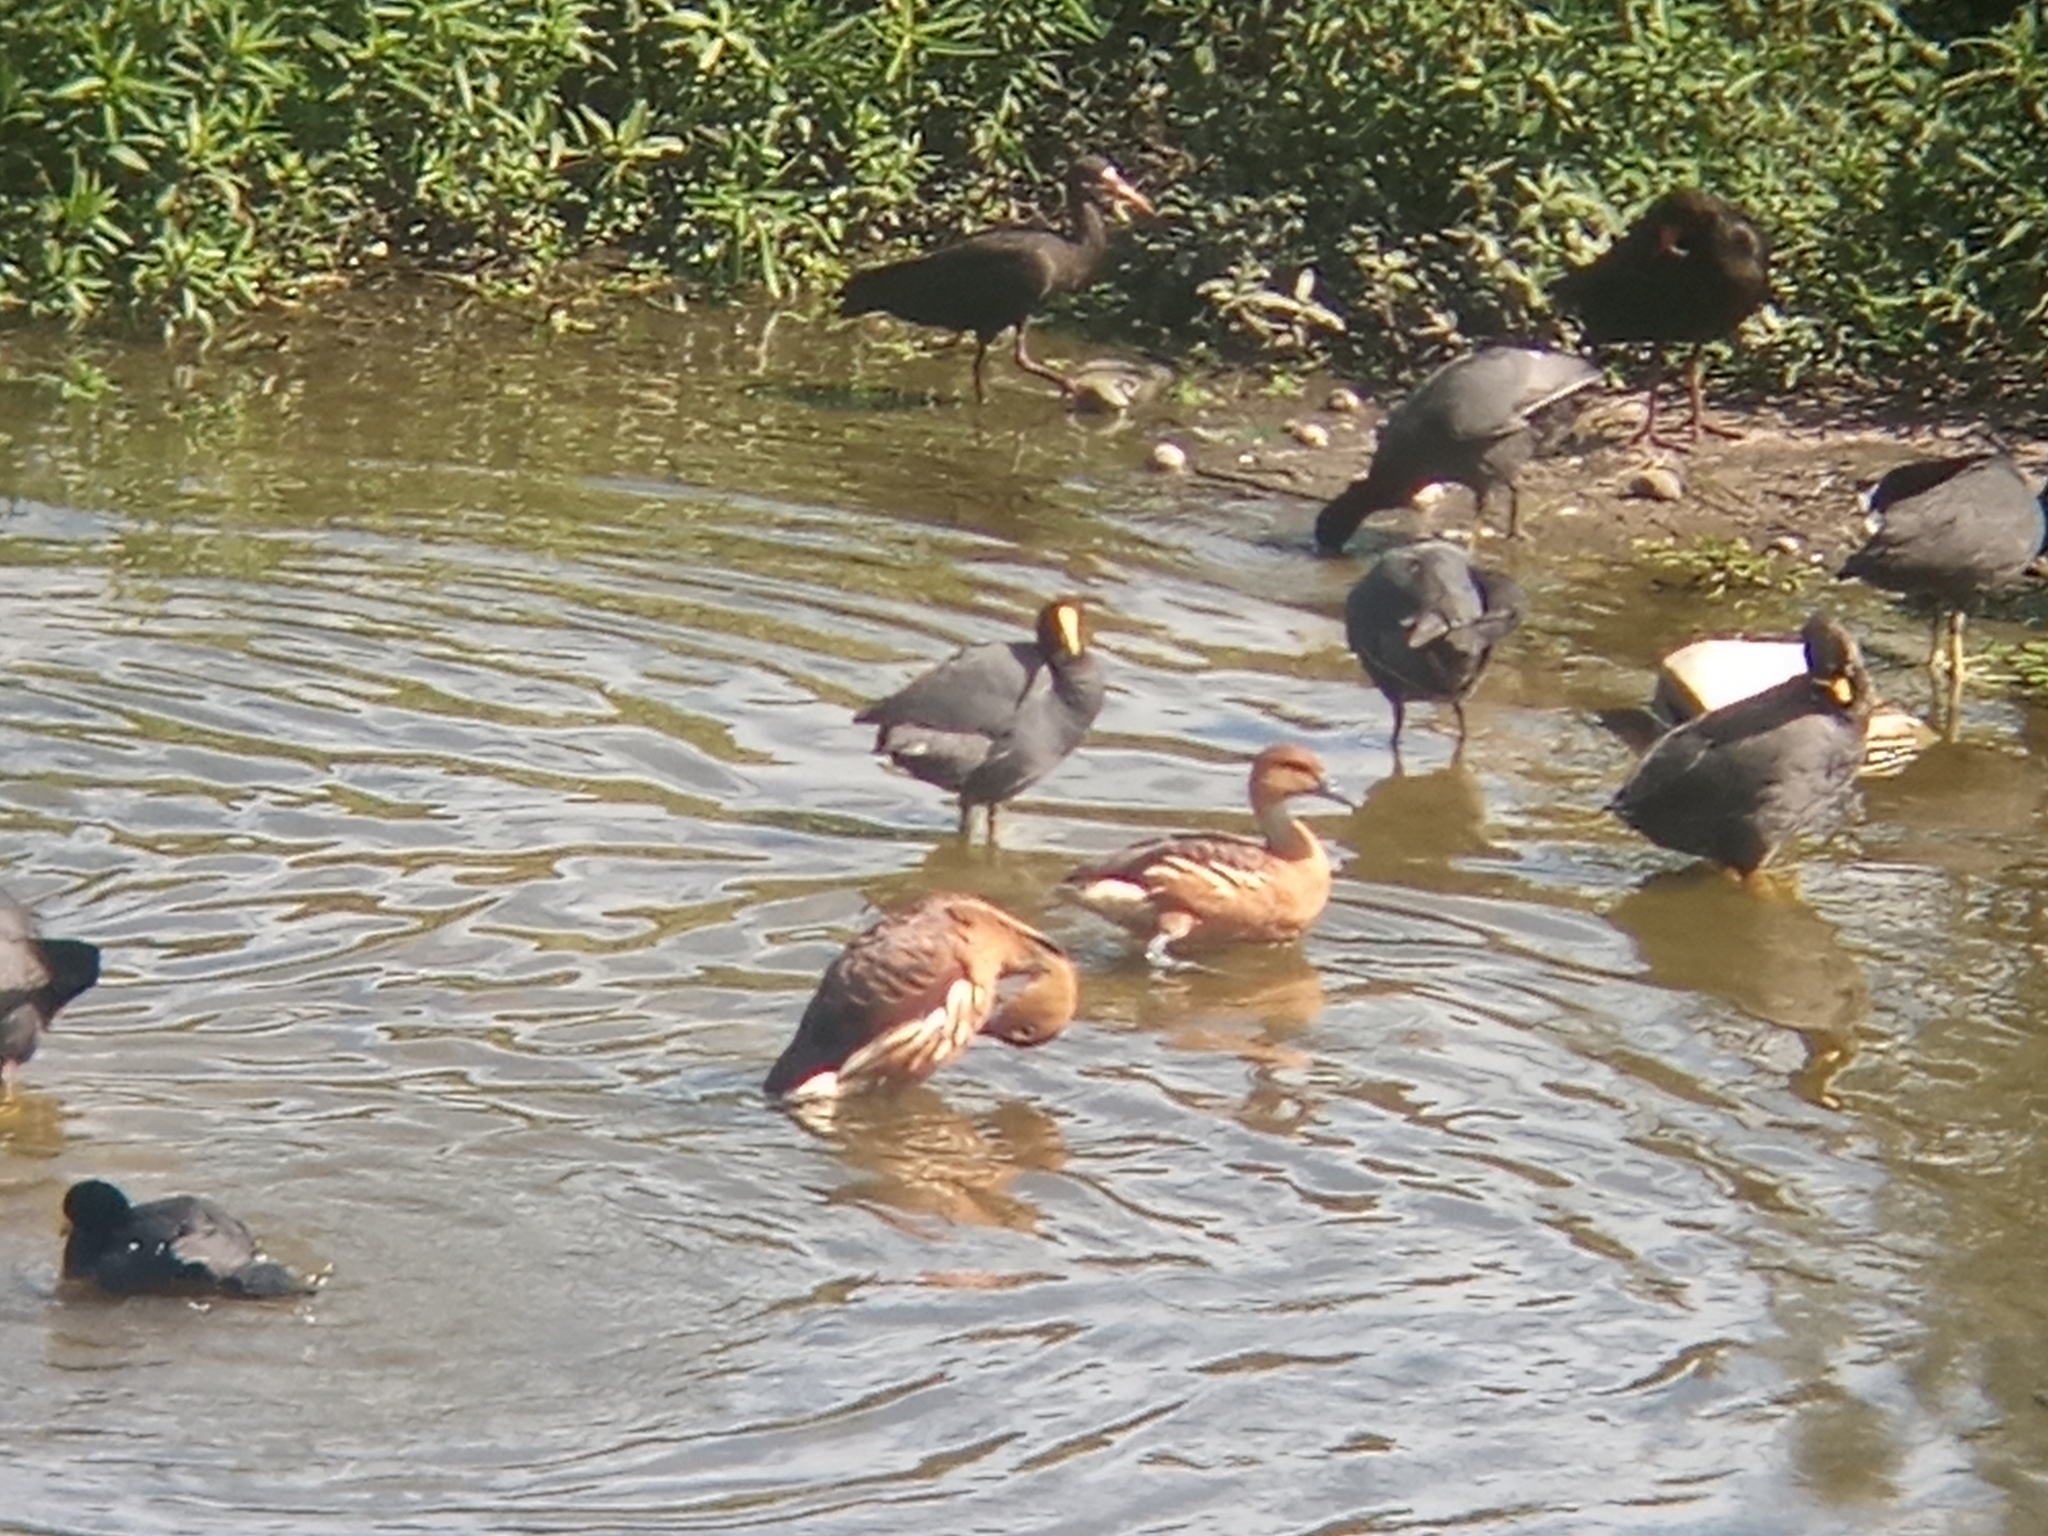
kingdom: Animalia
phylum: Chordata
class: Aves
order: Anseriformes
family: Anatidae
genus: Dendrocygna
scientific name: Dendrocygna bicolor
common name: Fulvous whistling duck
